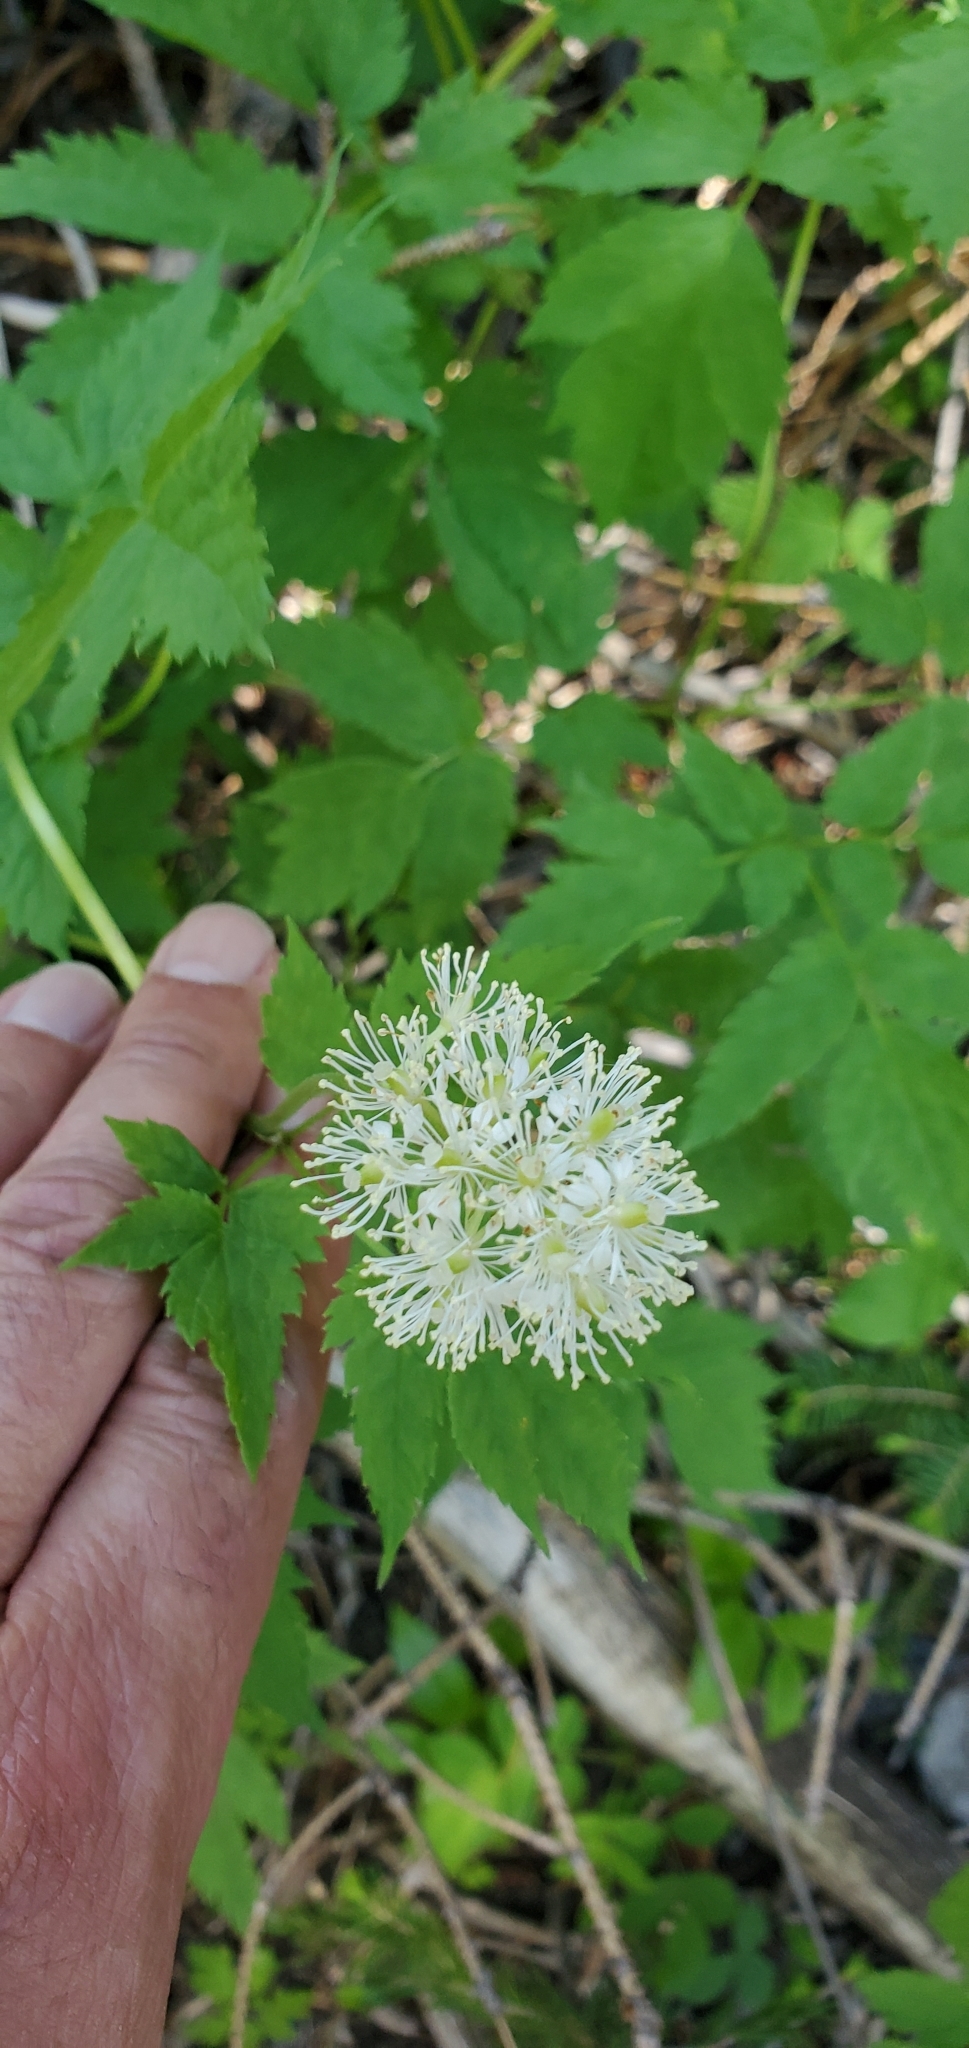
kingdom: Plantae
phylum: Tracheophyta
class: Magnoliopsida
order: Ranunculales
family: Ranunculaceae
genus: Actaea
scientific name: Actaea rubra
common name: Red baneberry
